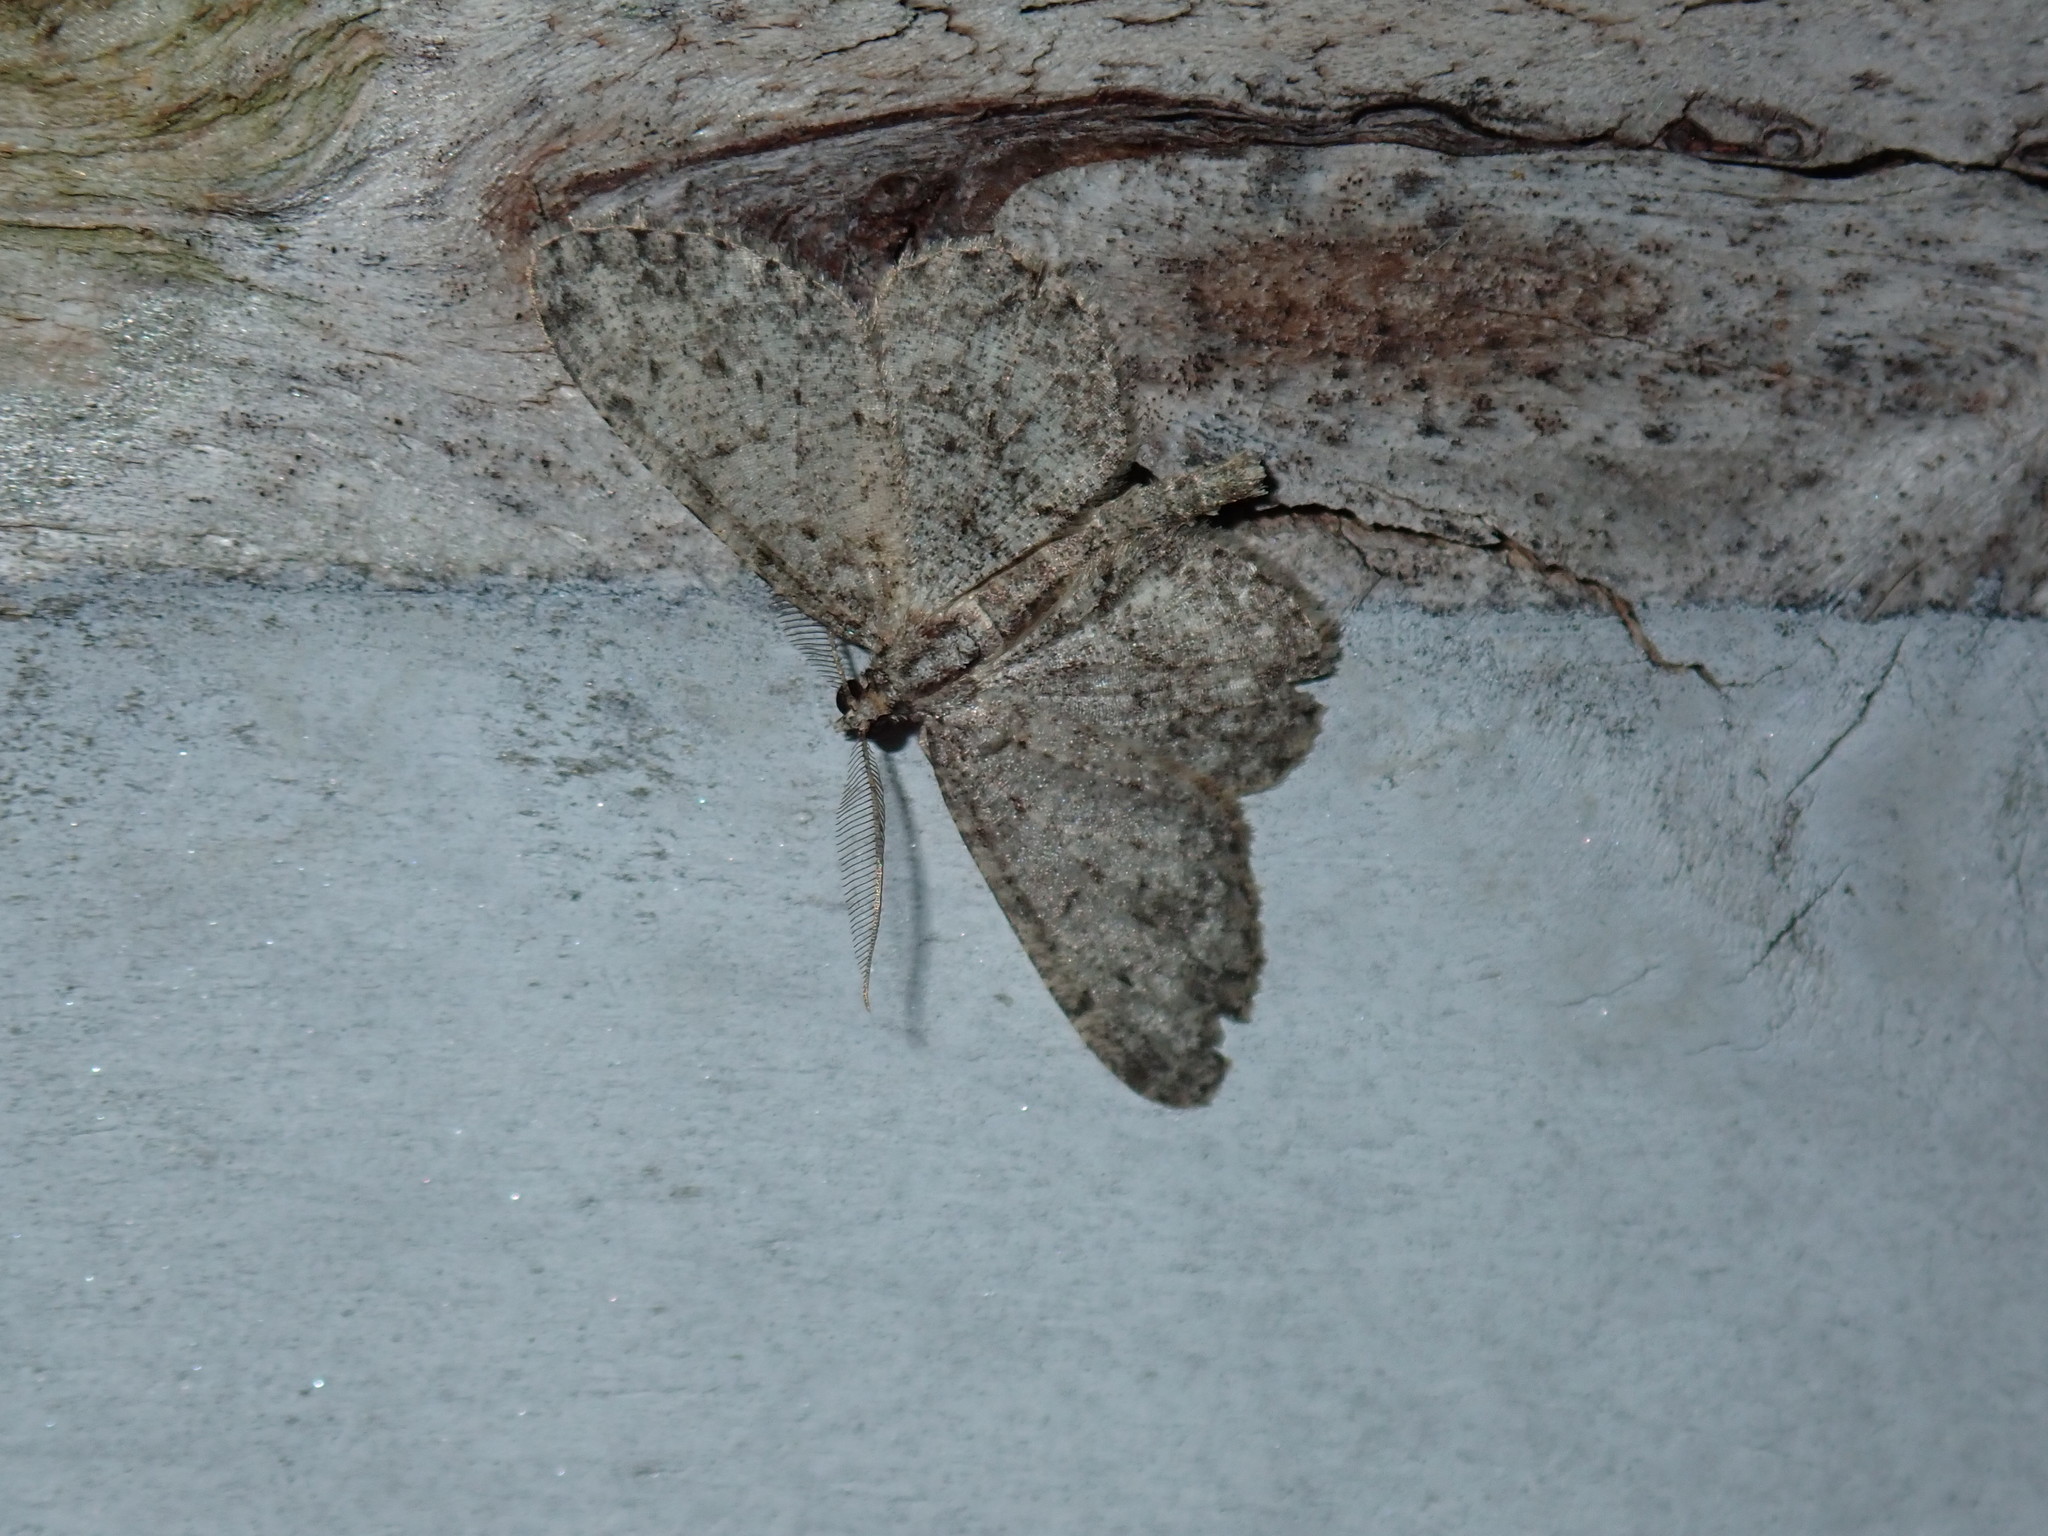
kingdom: Animalia
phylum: Arthropoda
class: Insecta
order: Lepidoptera
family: Geometridae
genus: Protoboarmia
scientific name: Protoboarmia porcelaria
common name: Porcelain gray
